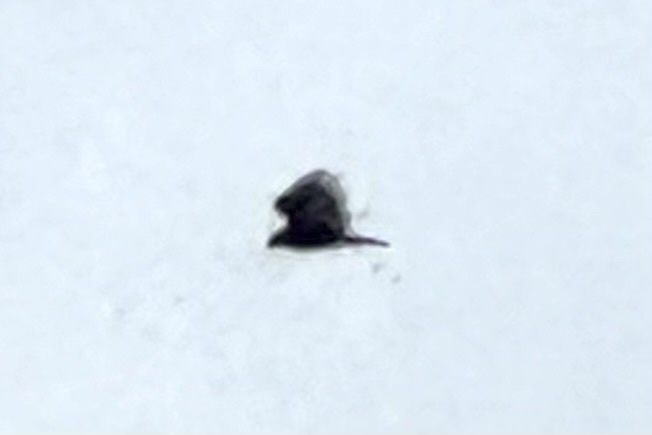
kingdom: Animalia
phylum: Chordata
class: Aves
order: Accipitriformes
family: Cathartidae
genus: Cathartes
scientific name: Cathartes aura
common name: Turkey vulture
